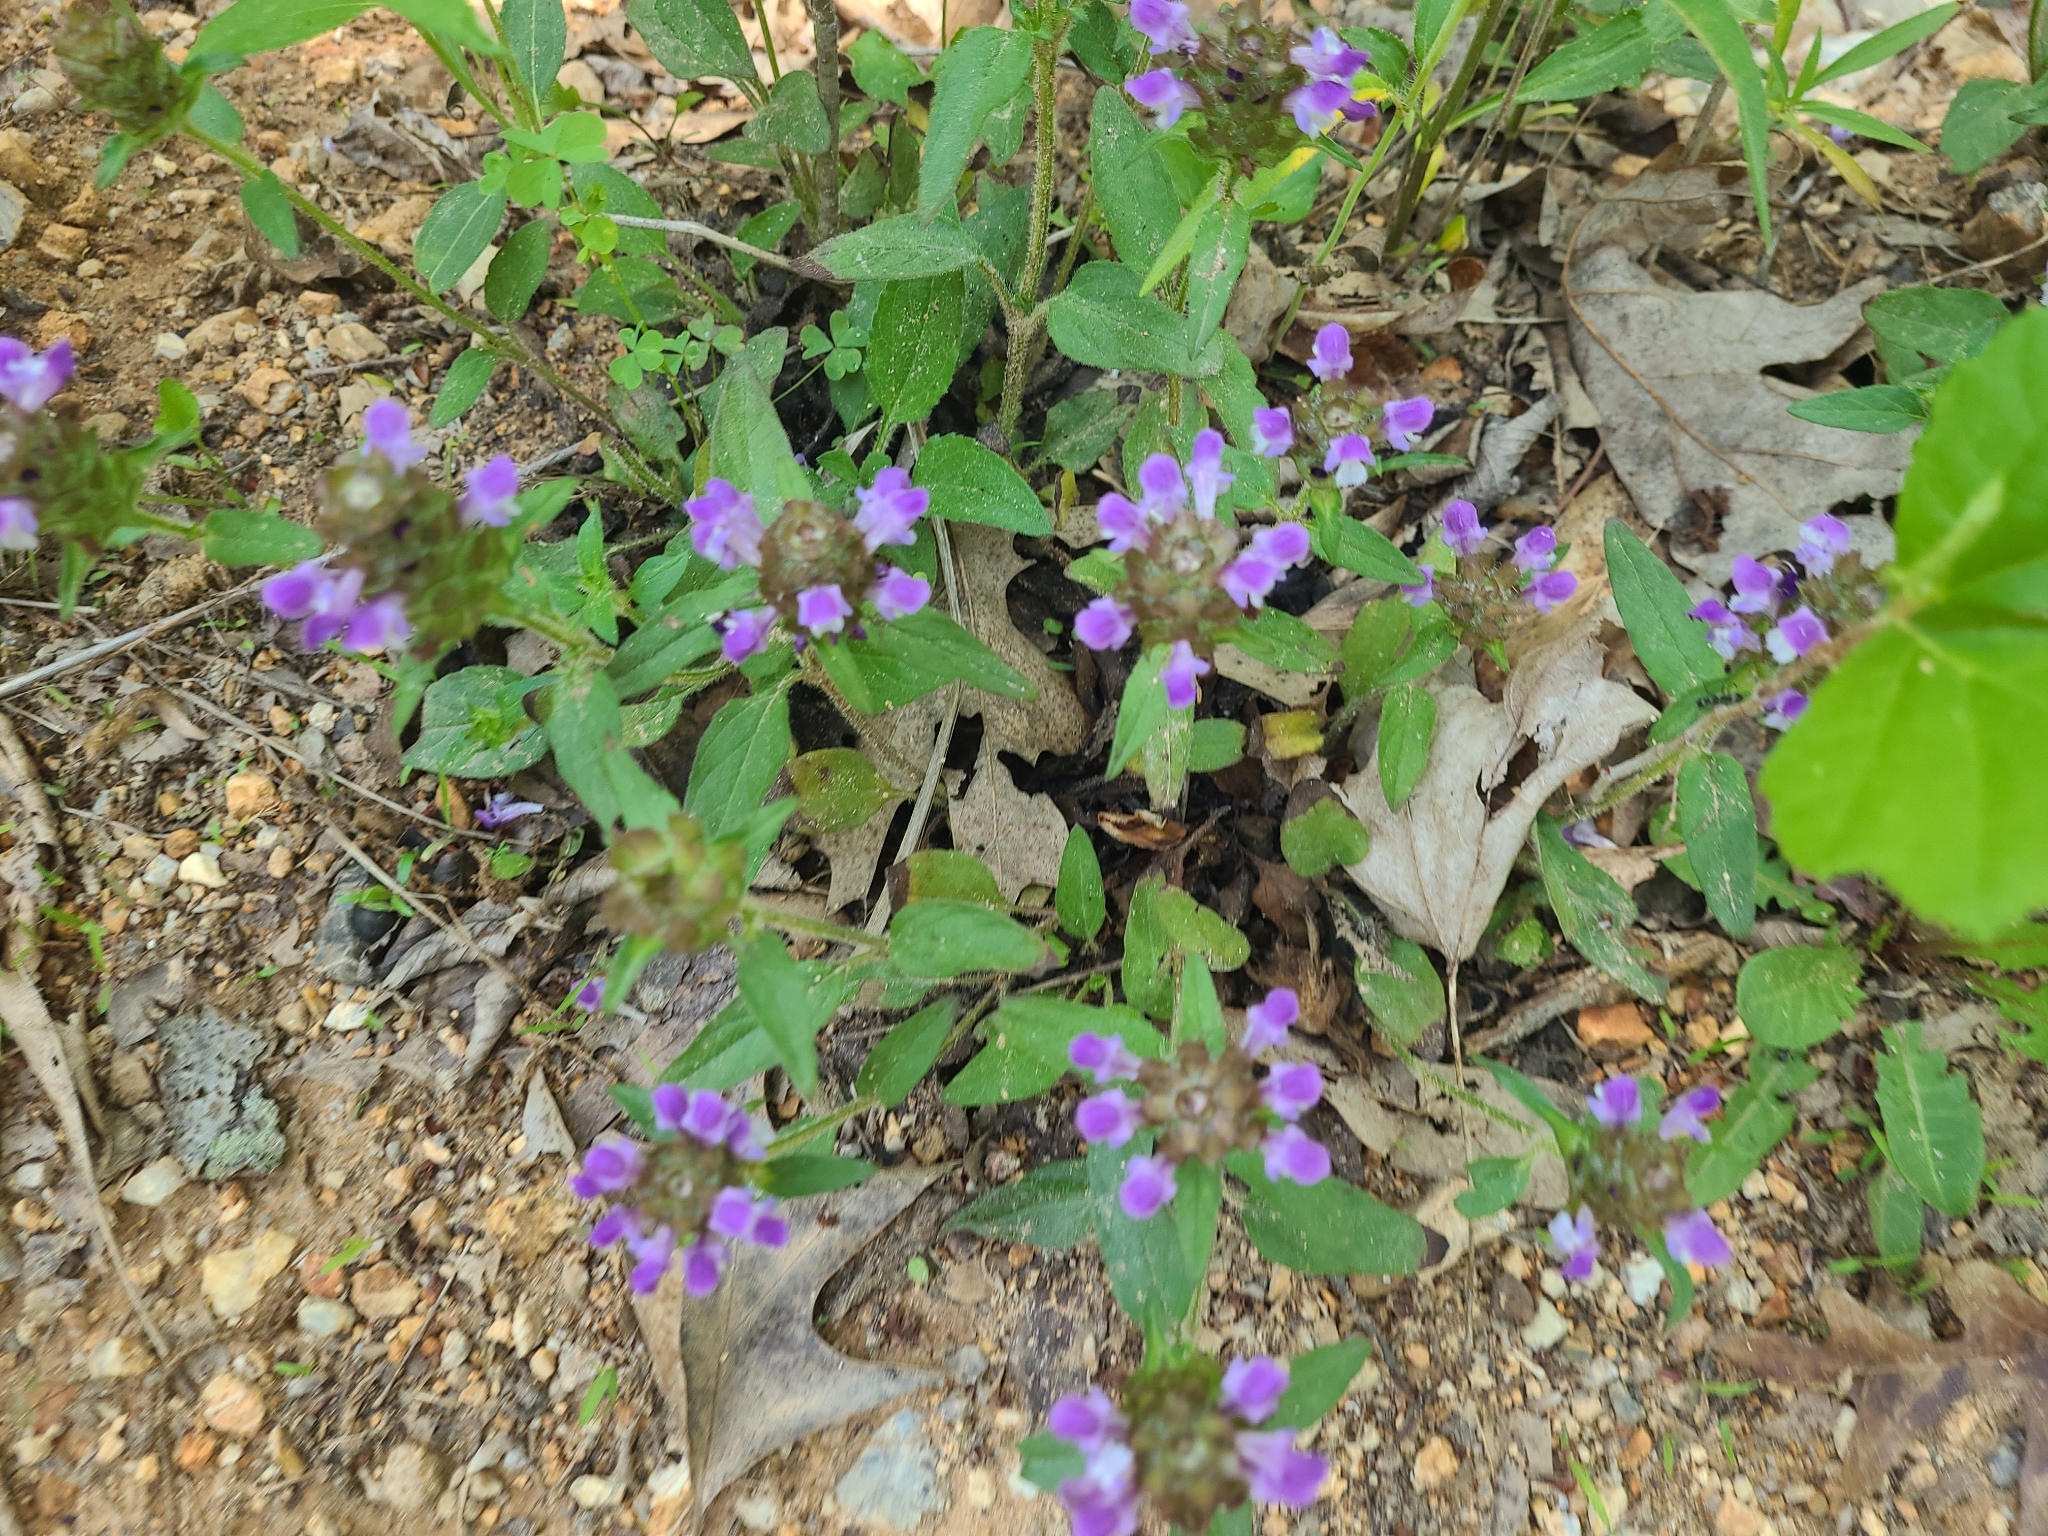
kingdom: Plantae
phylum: Tracheophyta
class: Magnoliopsida
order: Lamiales
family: Lamiaceae
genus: Prunella
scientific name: Prunella vulgaris
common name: Heal-all
